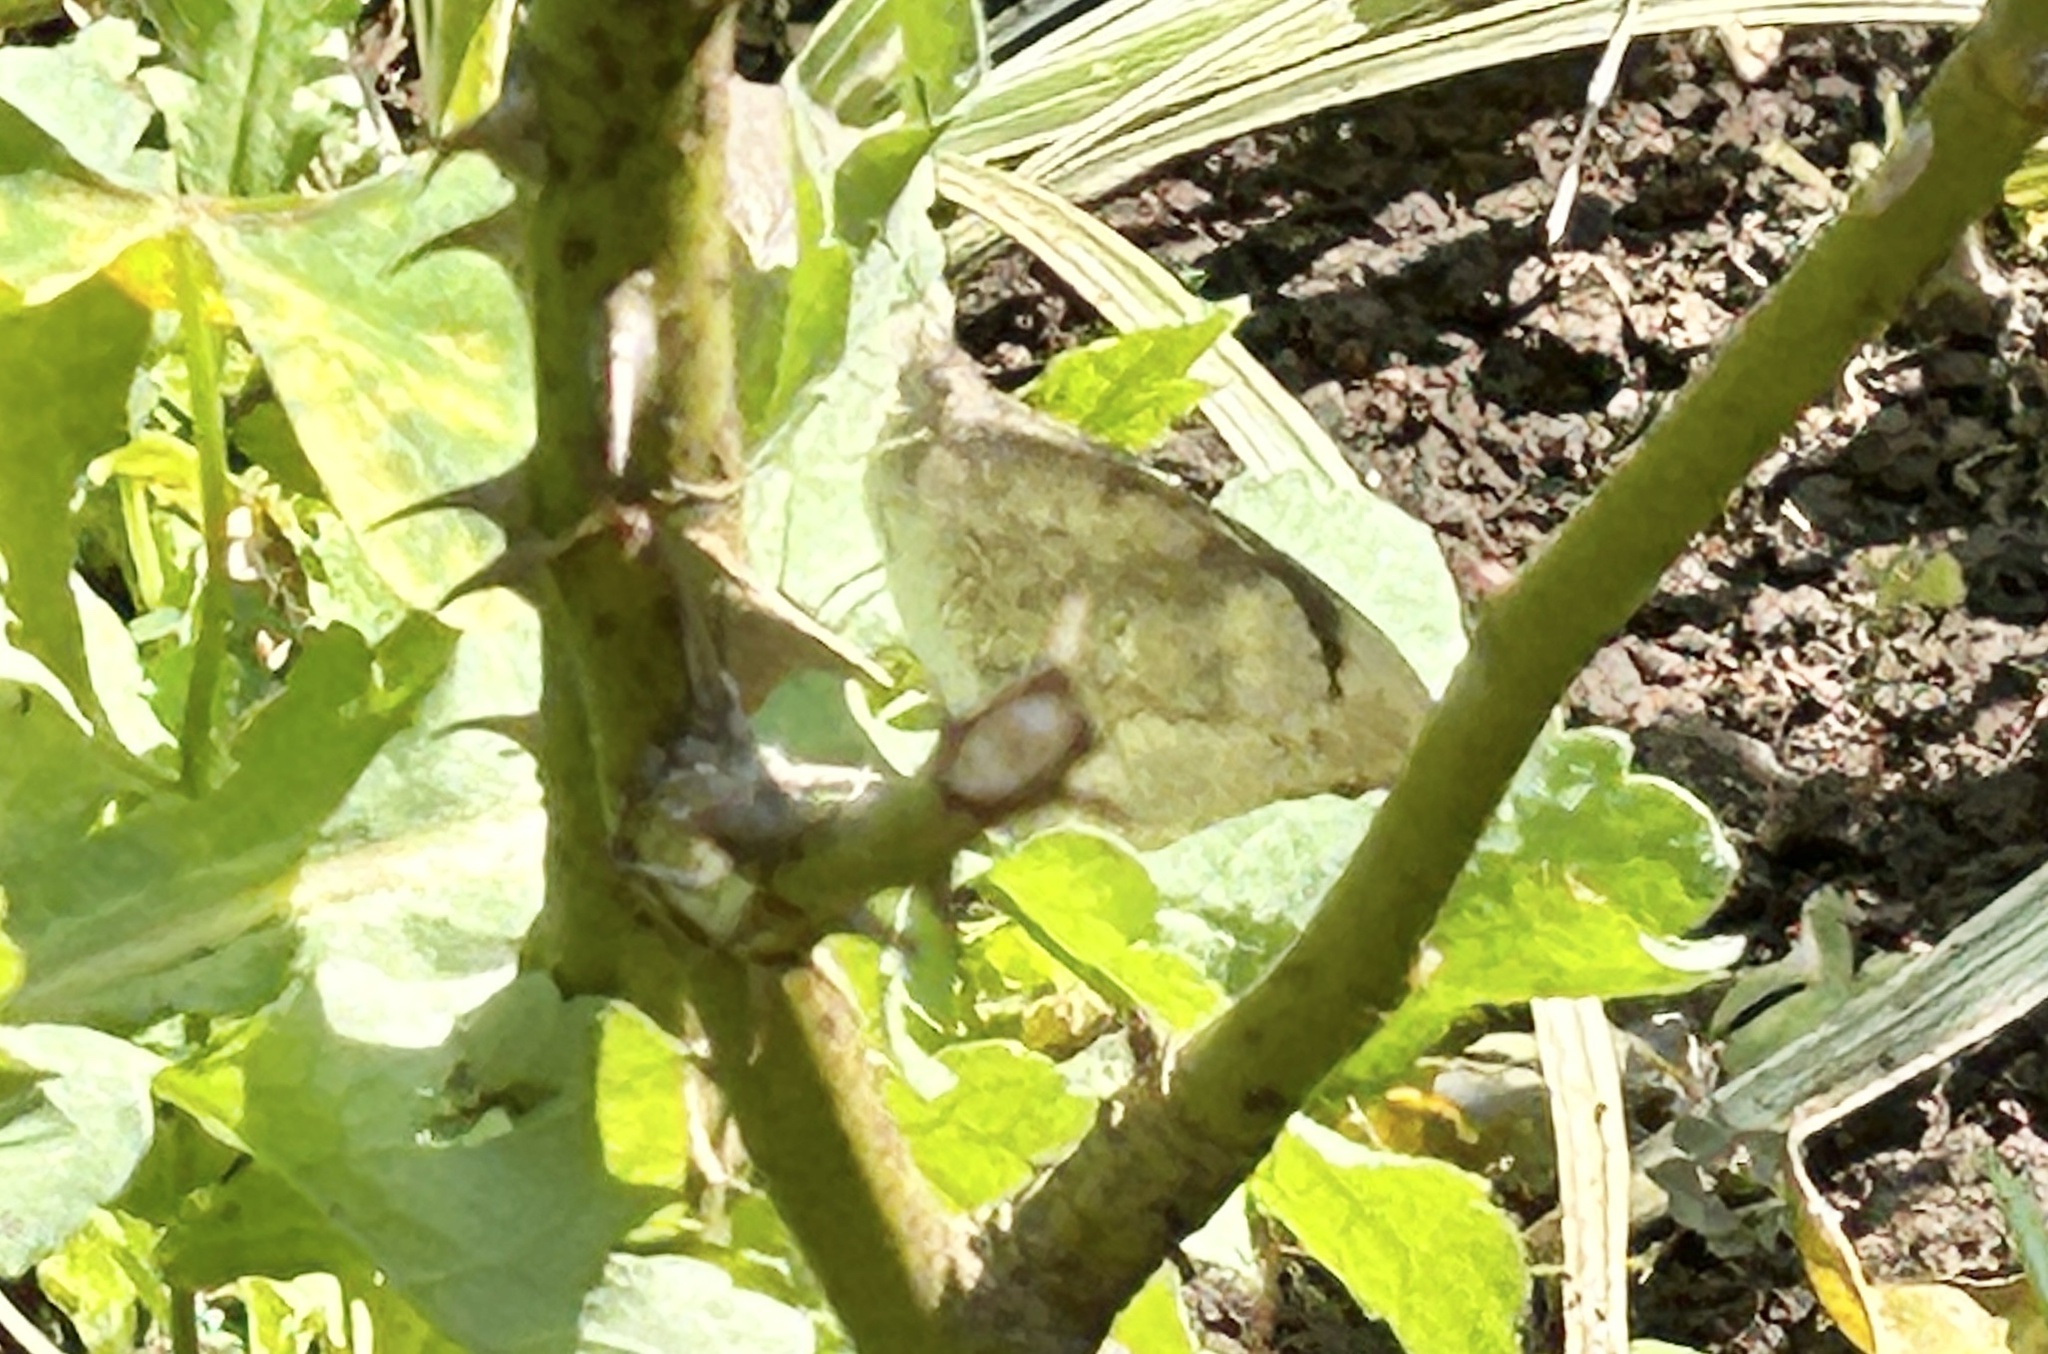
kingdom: Animalia
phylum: Arthropoda
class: Insecta
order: Lepidoptera
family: Pieridae
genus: Catopsilia
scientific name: Catopsilia pyranthe
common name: Mottled emigrant
